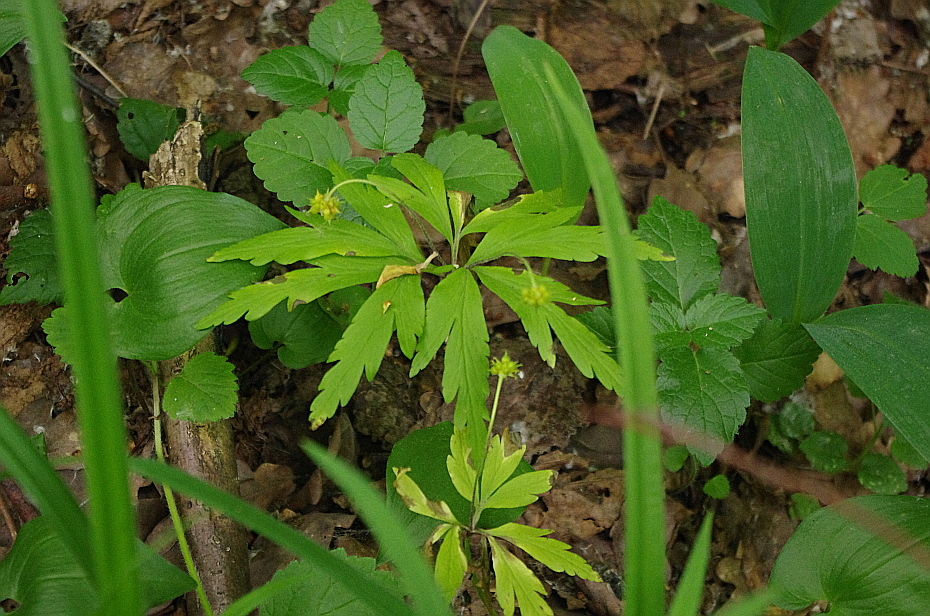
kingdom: Plantae
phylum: Tracheophyta
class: Magnoliopsida
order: Ranunculales
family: Ranunculaceae
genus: Anemone
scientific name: Anemone ranunculoides
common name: Yellow anemone
